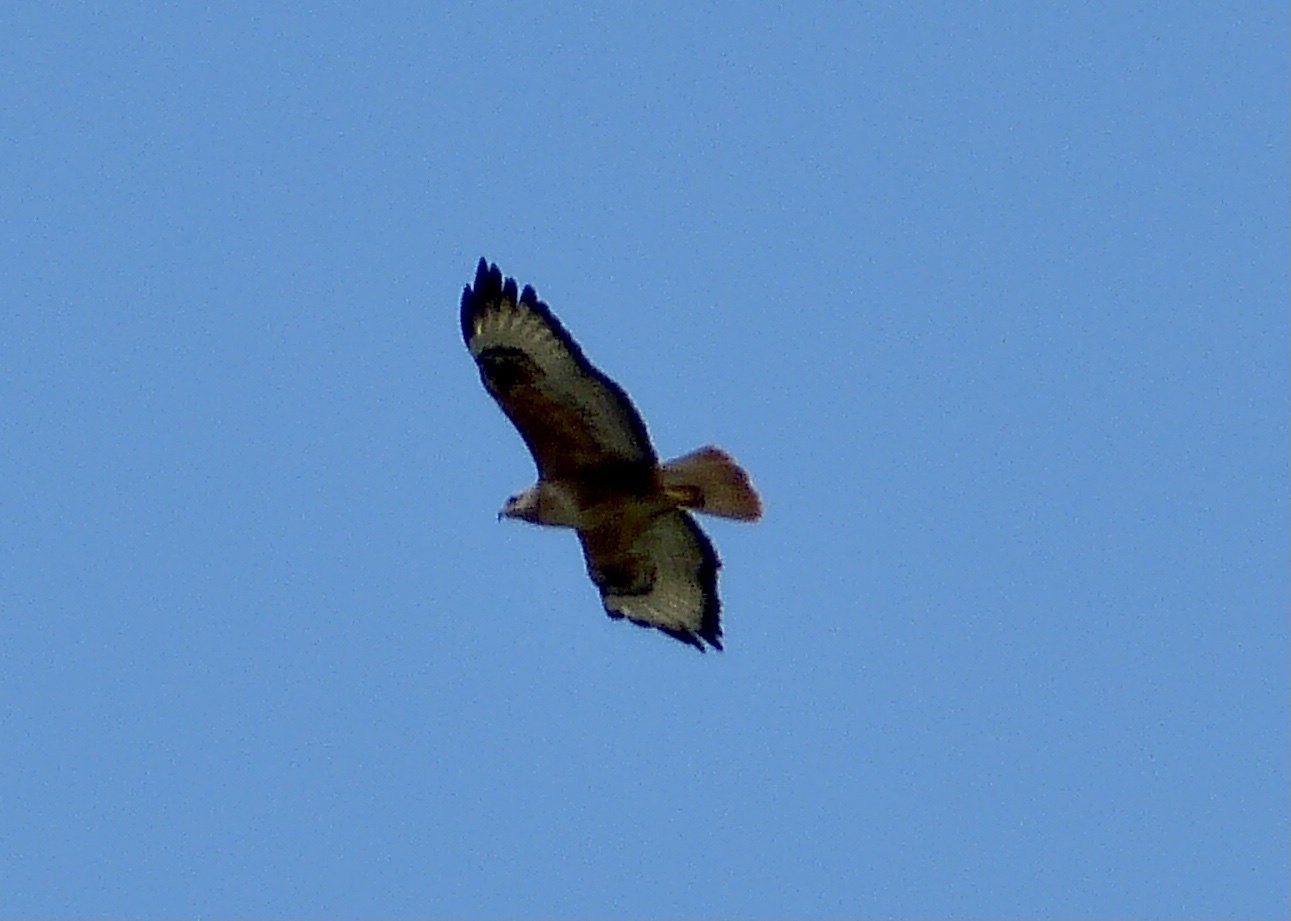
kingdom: Animalia
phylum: Chordata
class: Aves
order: Accipitriformes
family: Accipitridae
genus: Buteo
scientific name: Buteo rufinus
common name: Long-legged buzzard
